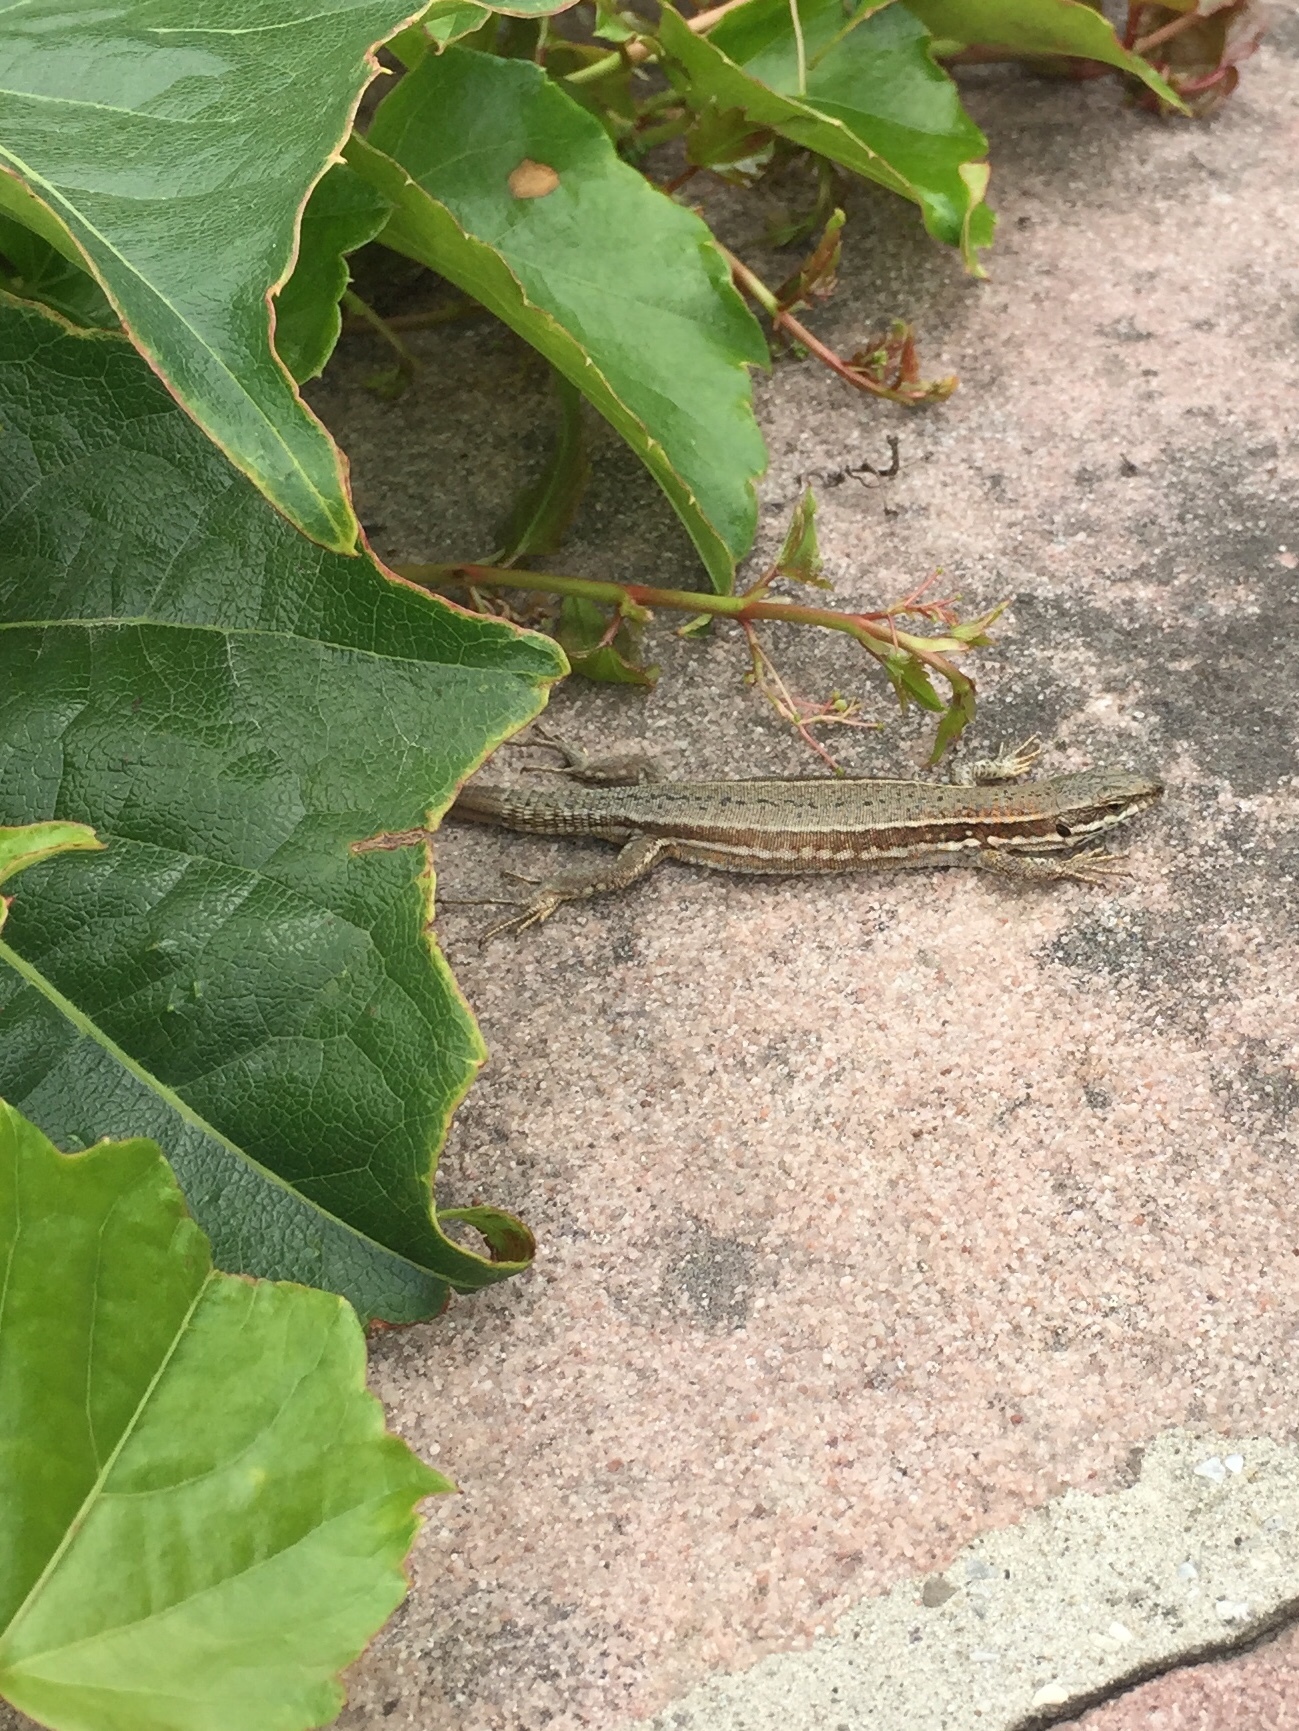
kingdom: Animalia
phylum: Chordata
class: Squamata
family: Lacertidae
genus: Podarcis
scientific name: Podarcis muralis
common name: Common wall lizard
